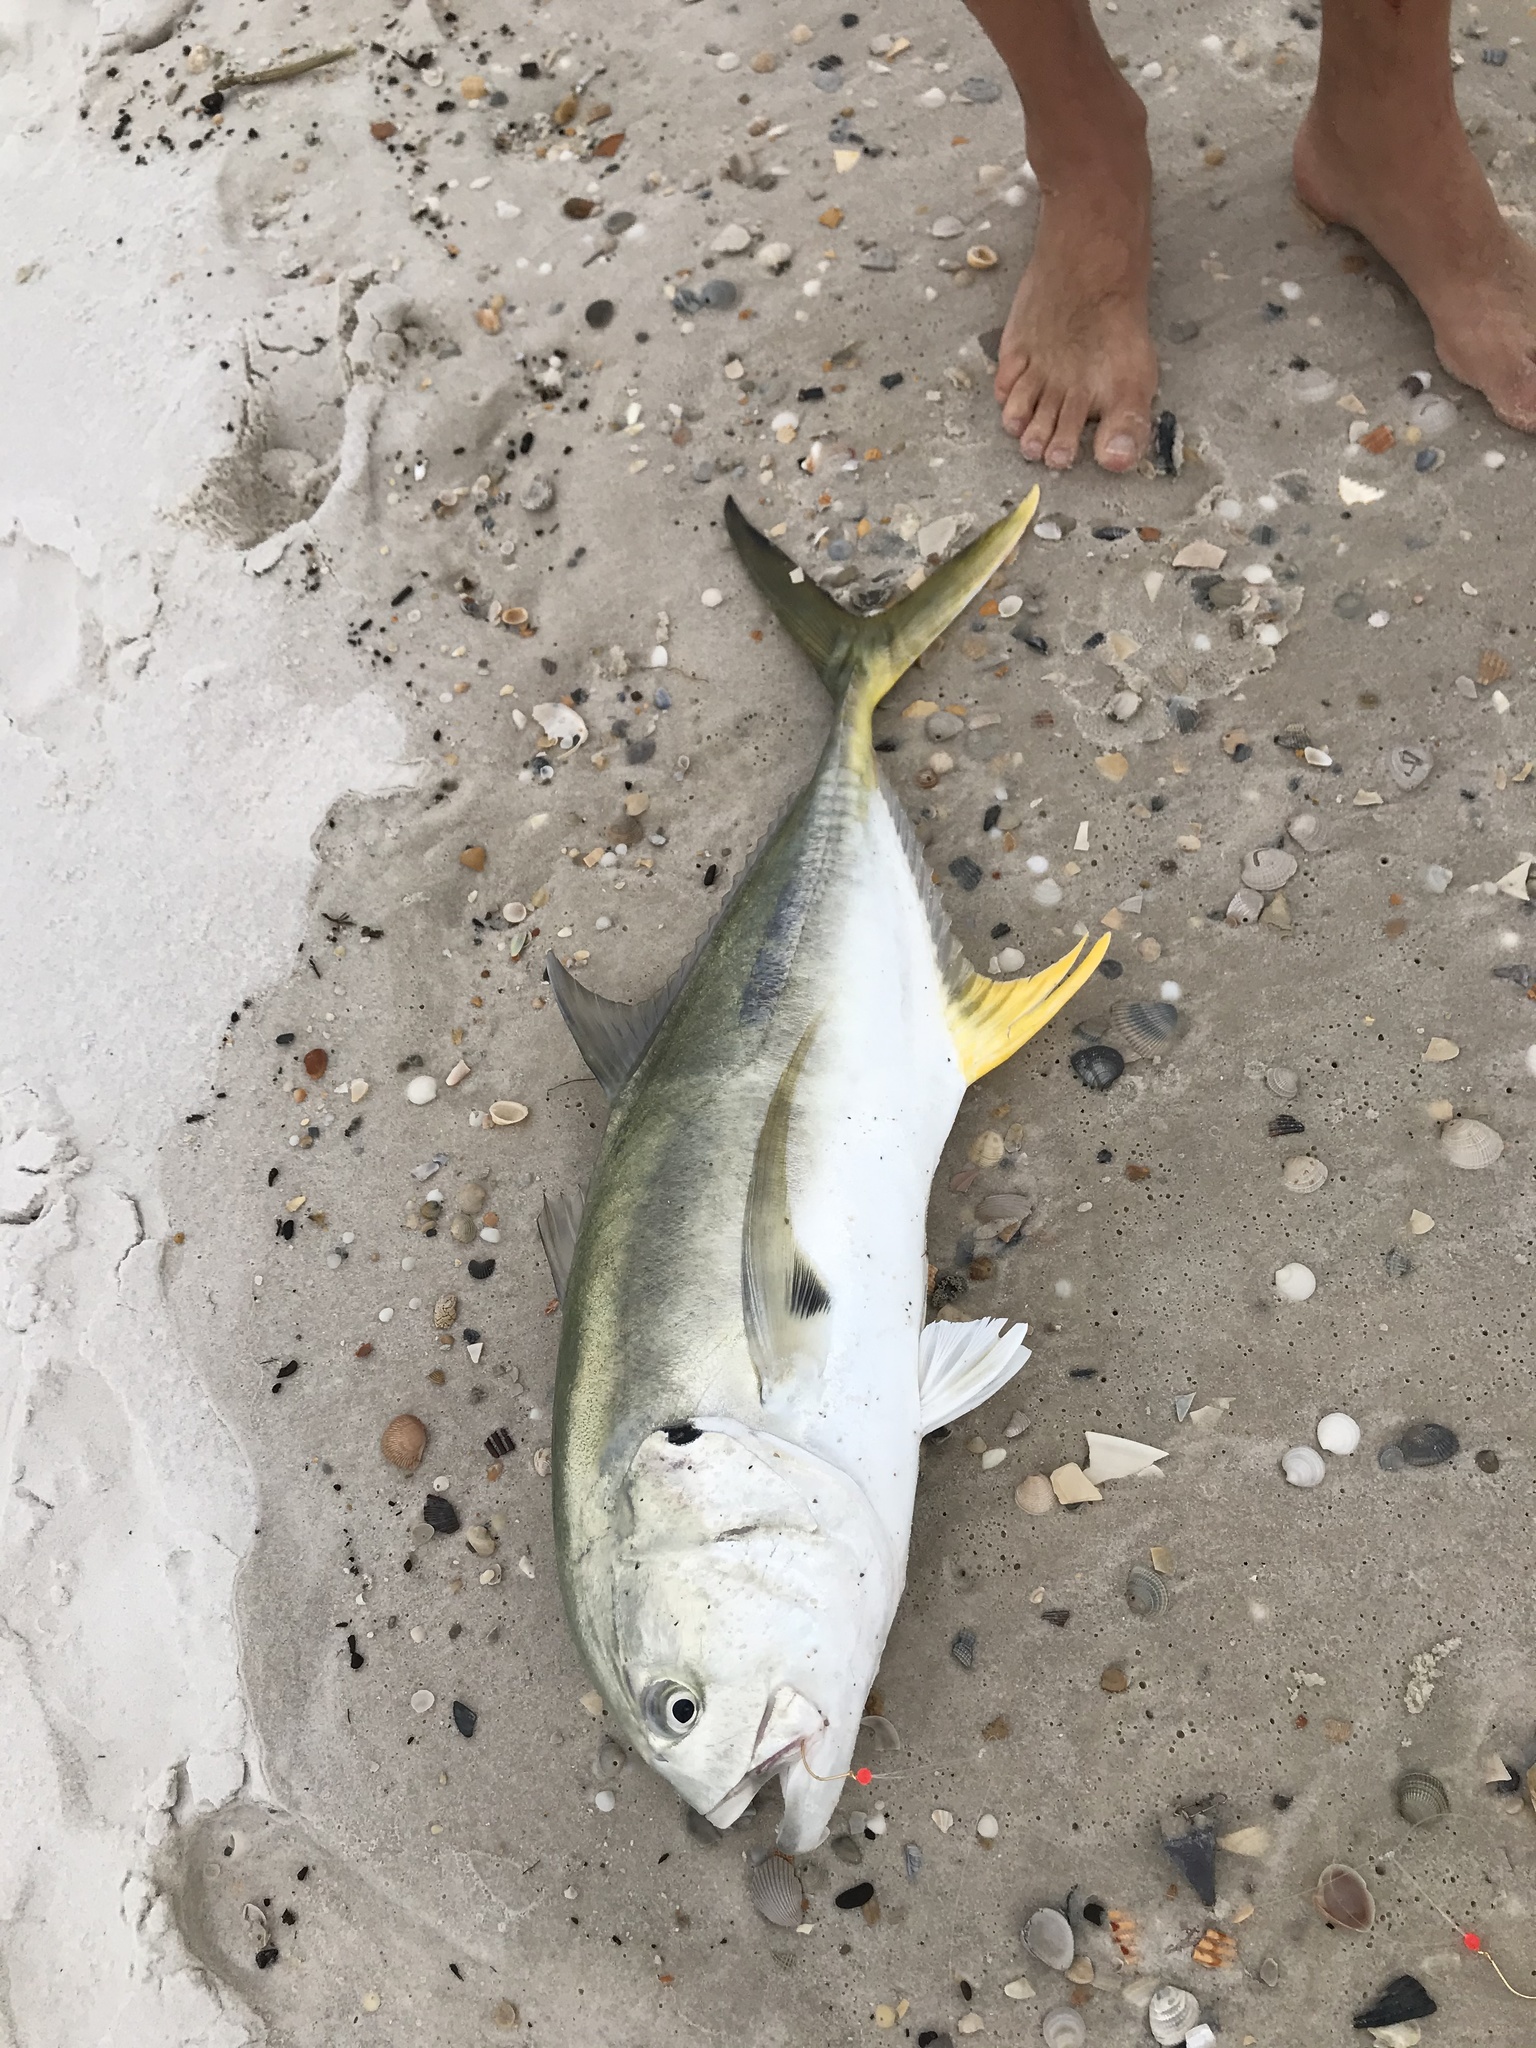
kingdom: Animalia
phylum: Chordata
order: Perciformes
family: Carangidae
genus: Caranx
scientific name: Caranx hippos
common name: Common jack
